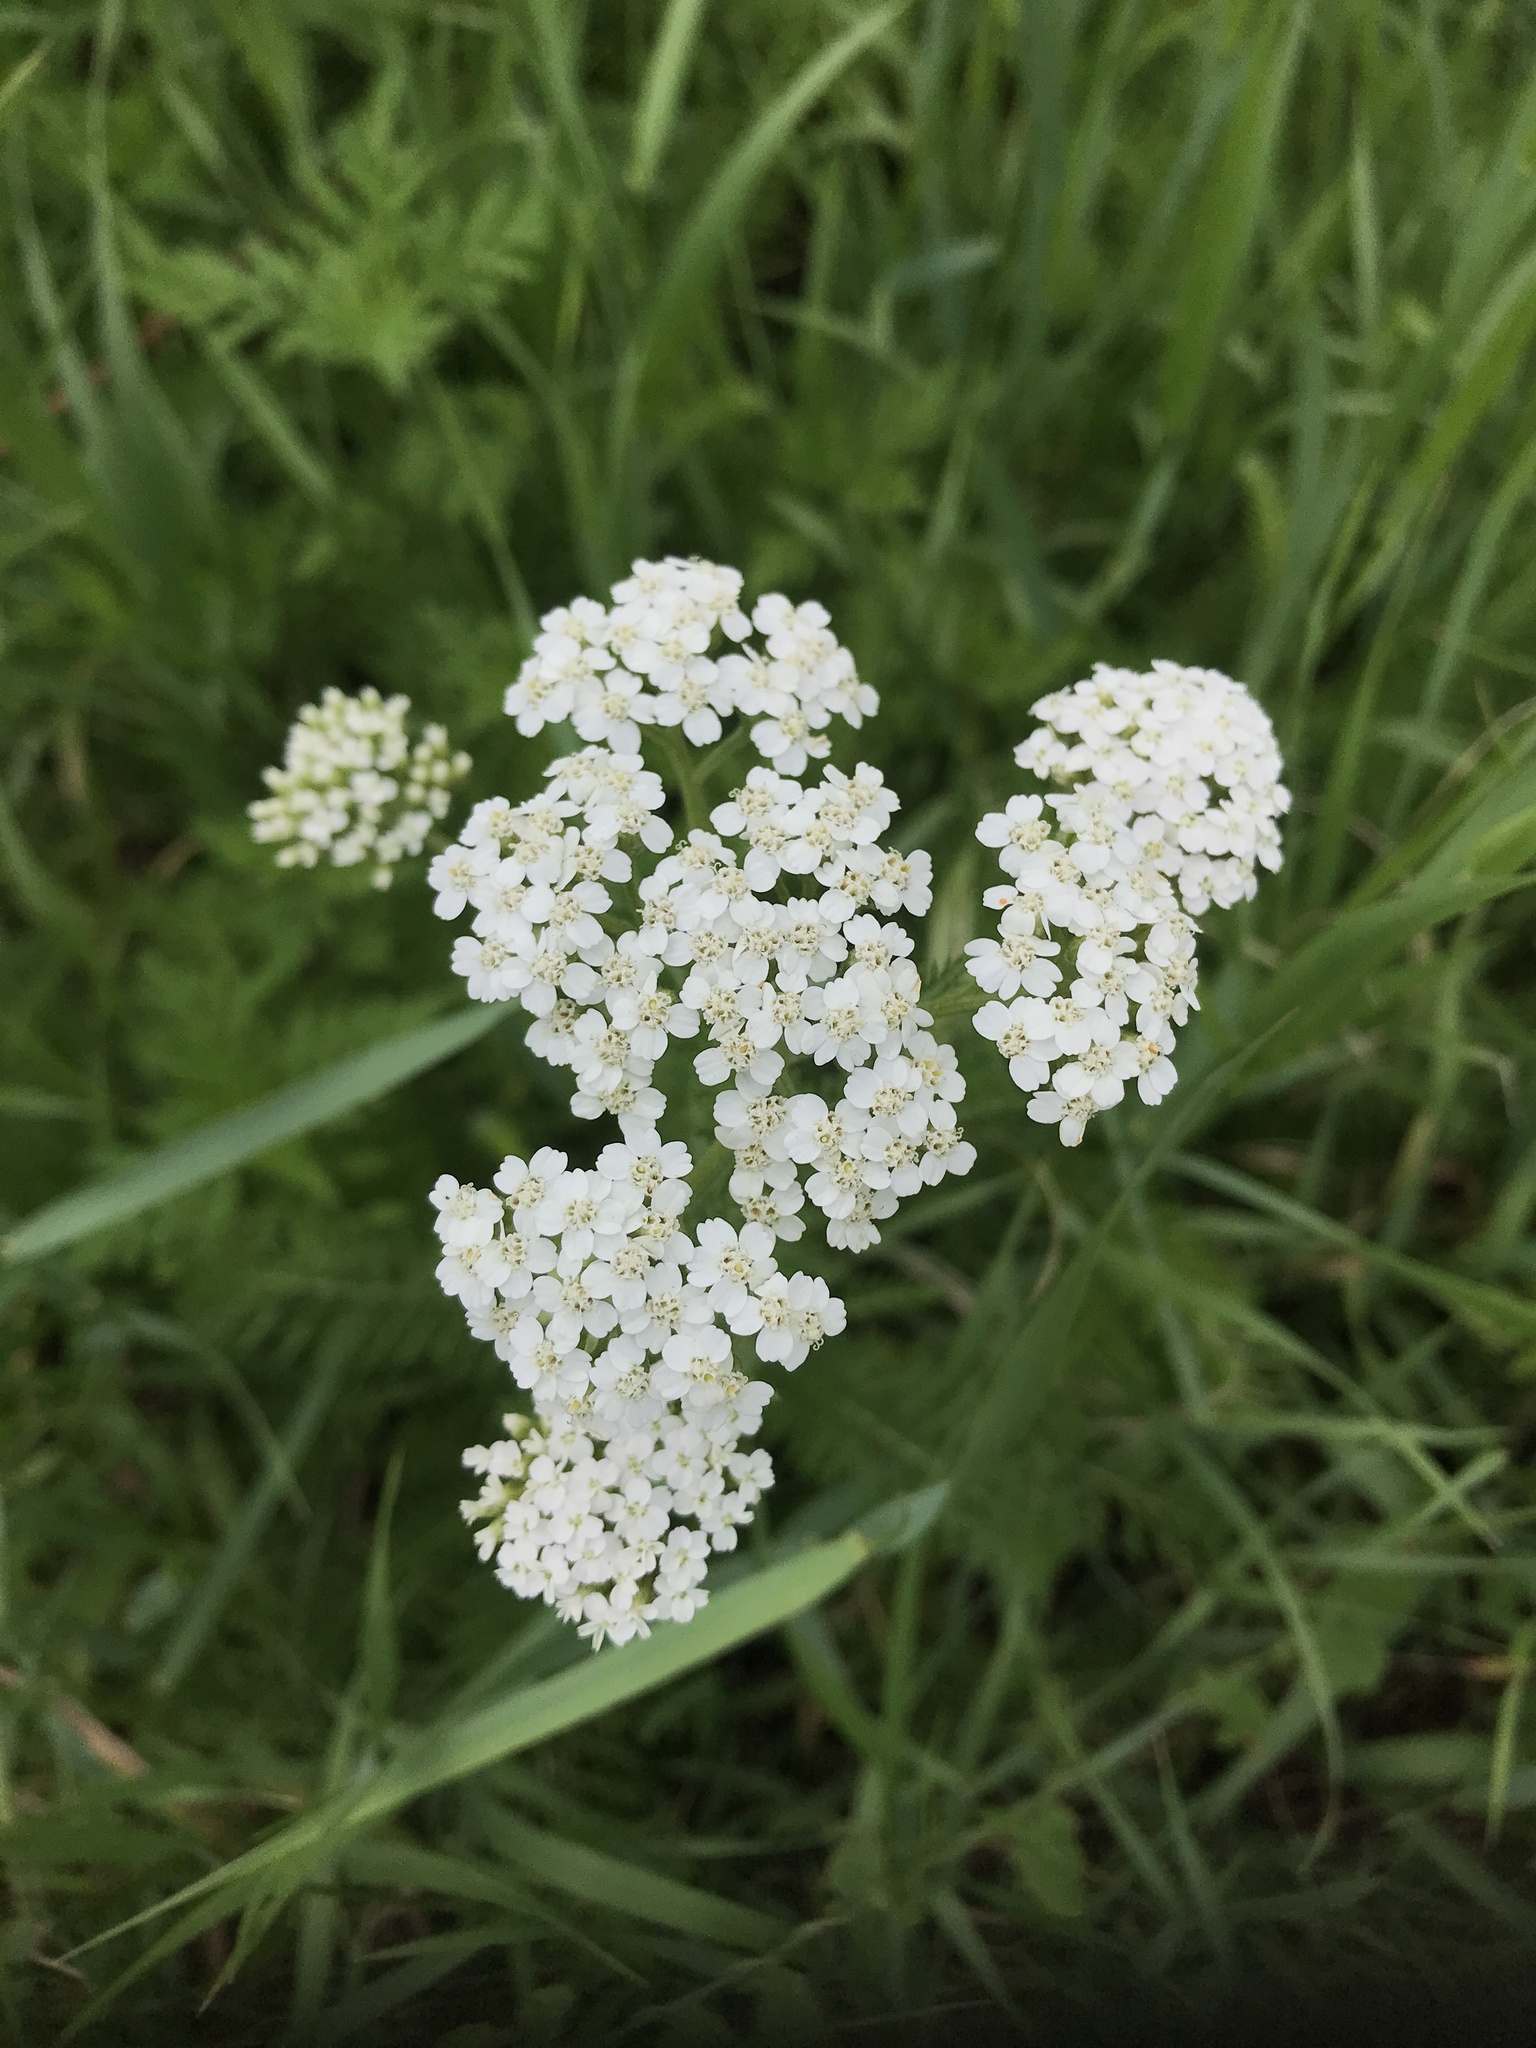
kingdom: Plantae
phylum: Tracheophyta
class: Magnoliopsida
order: Asterales
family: Asteraceae
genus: Achillea
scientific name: Achillea millefolium
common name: Yarrow
